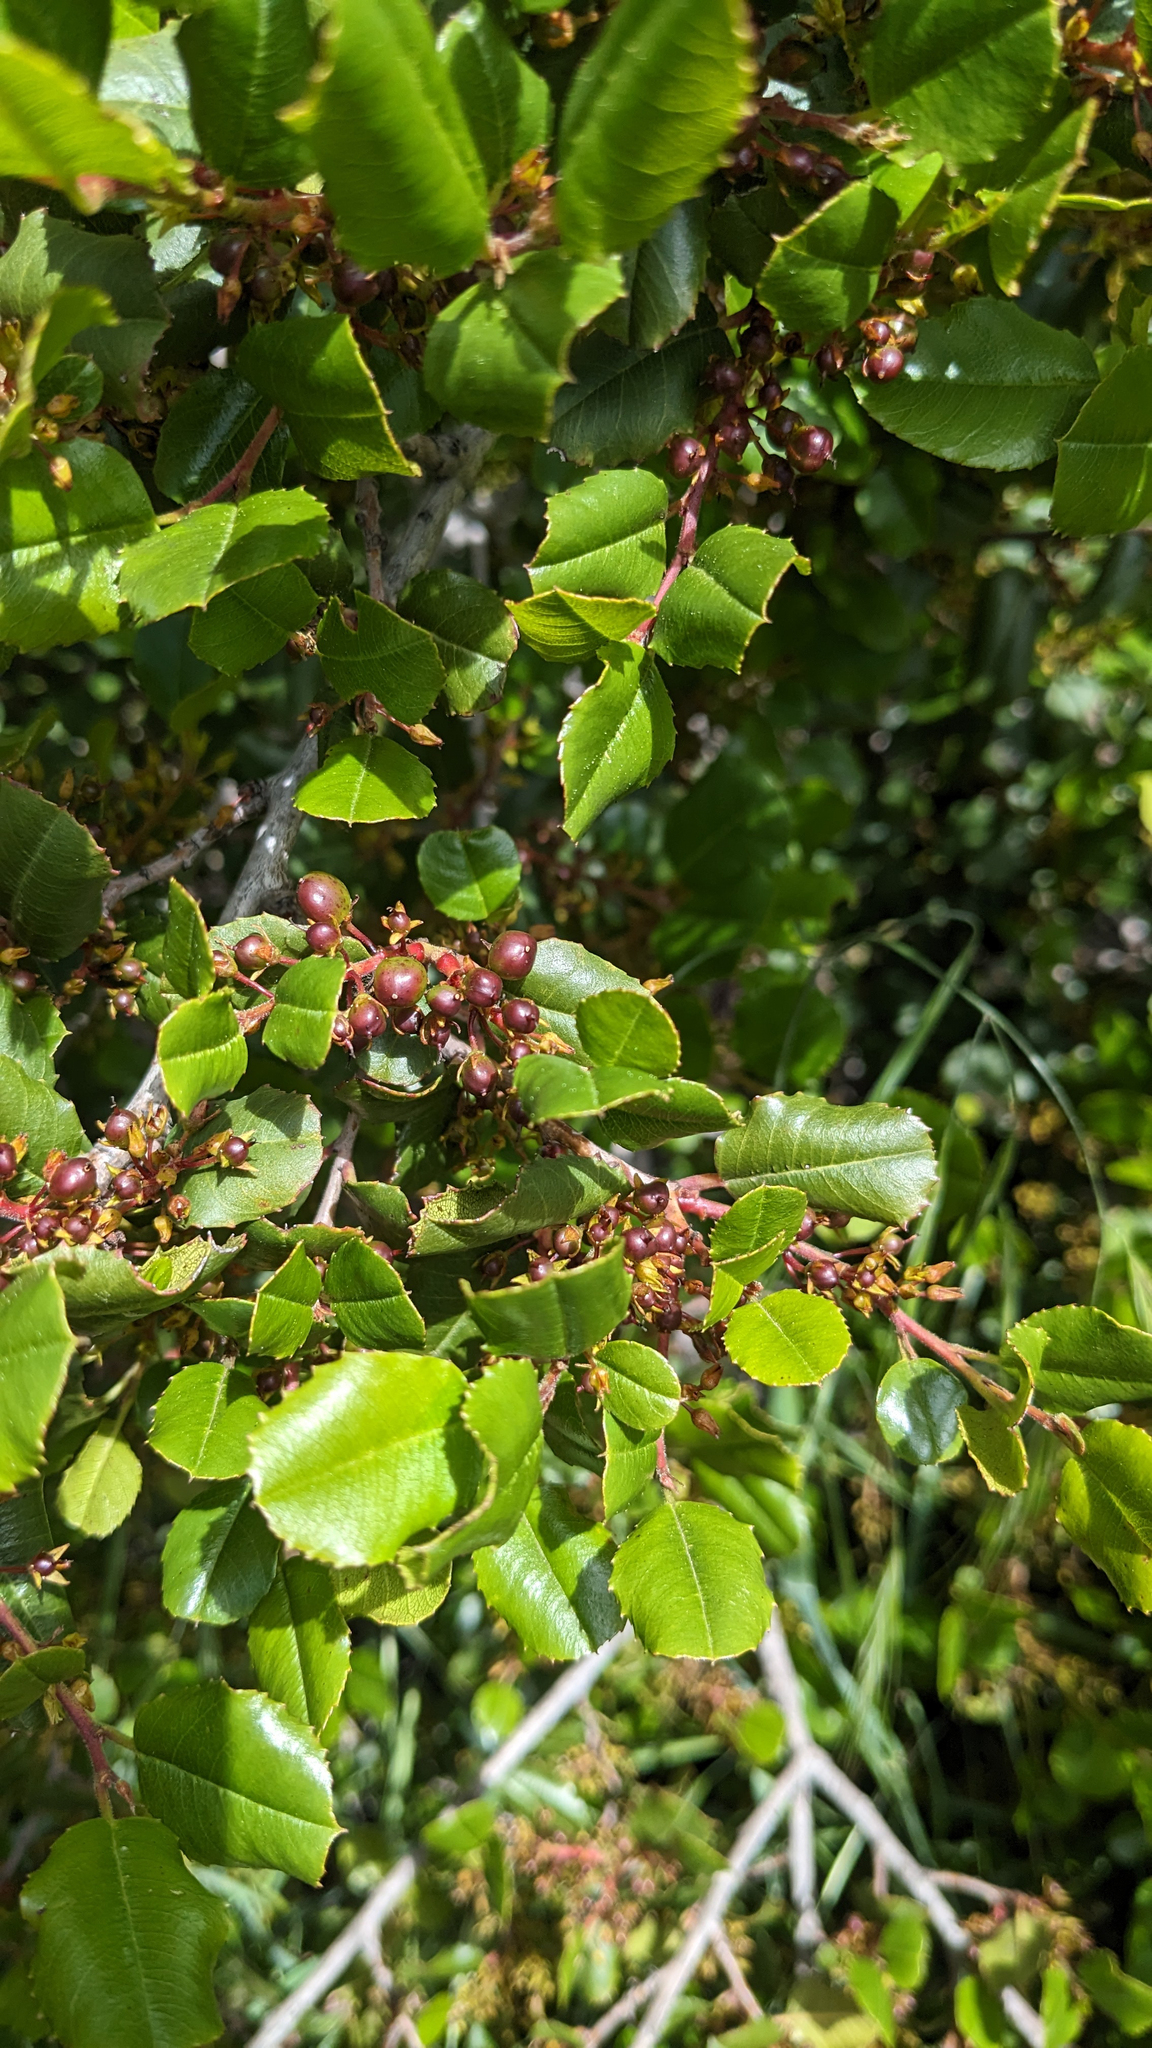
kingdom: Plantae
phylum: Tracheophyta
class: Magnoliopsida
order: Rosales
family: Rhamnaceae
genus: Endotropis
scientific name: Endotropis crocea
